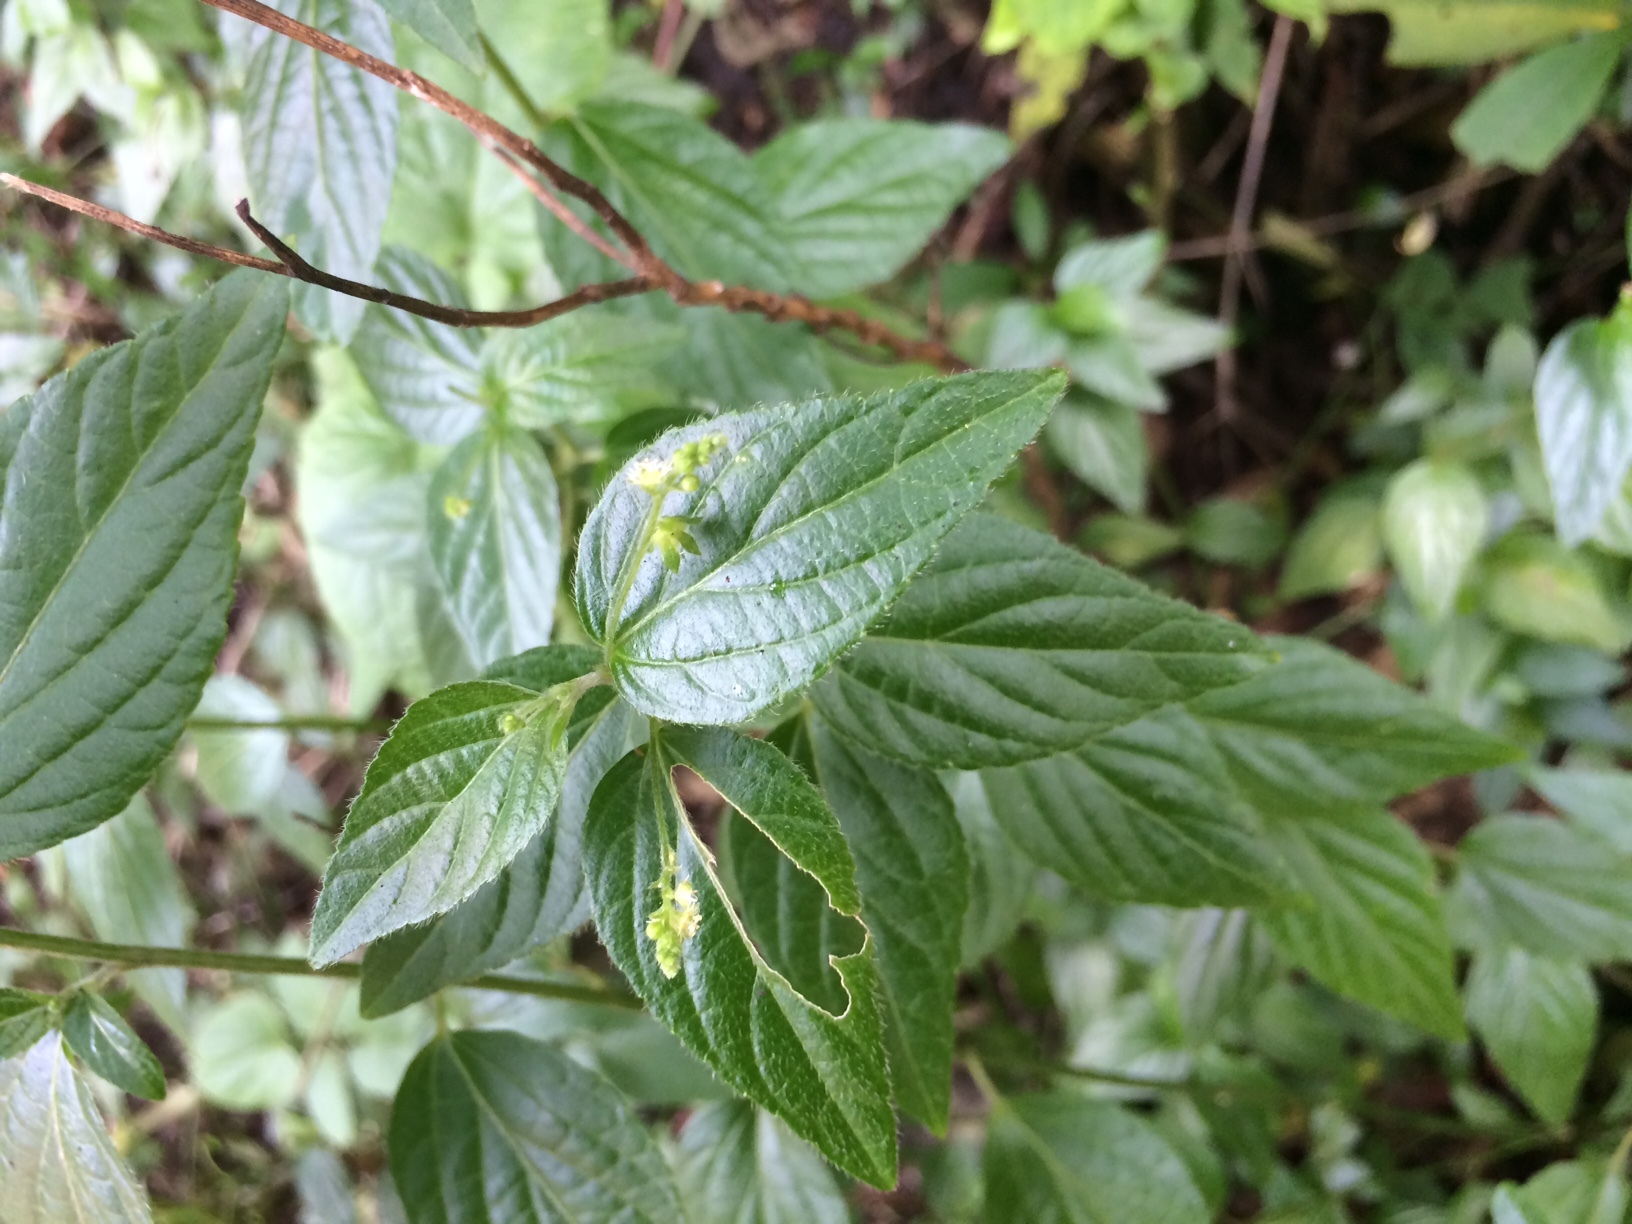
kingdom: Plantae
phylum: Tracheophyta
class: Magnoliopsida
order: Malpighiales
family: Euphorbiaceae
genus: Caperonia
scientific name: Caperonia palustris
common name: Sacatrapo
